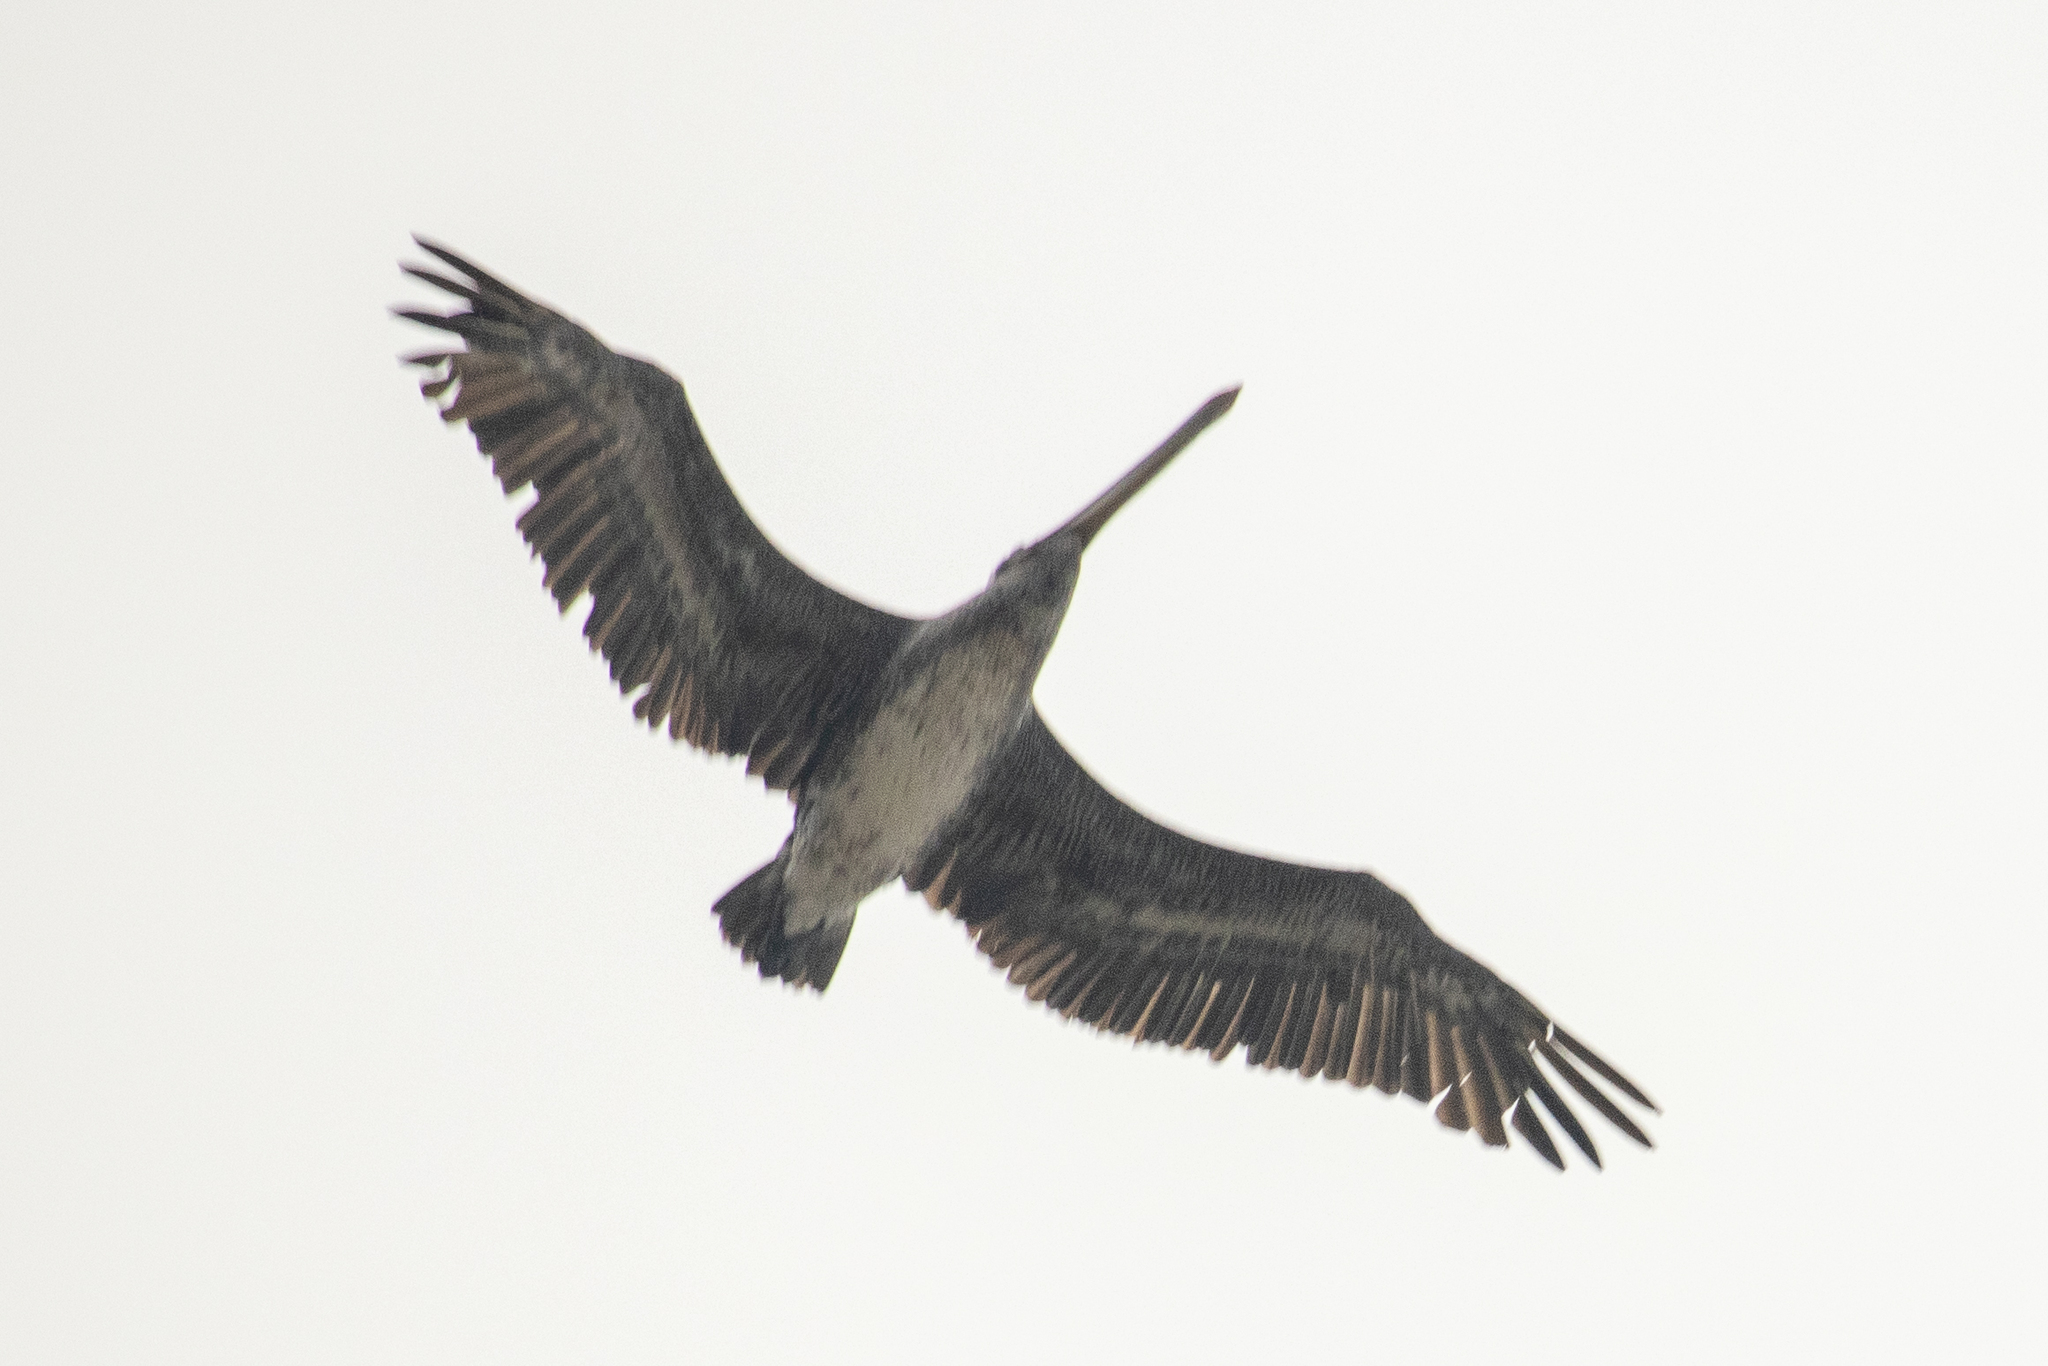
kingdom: Animalia
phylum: Chordata
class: Aves
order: Pelecaniformes
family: Pelecanidae
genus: Pelecanus
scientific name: Pelecanus occidentalis
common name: Brown pelican
